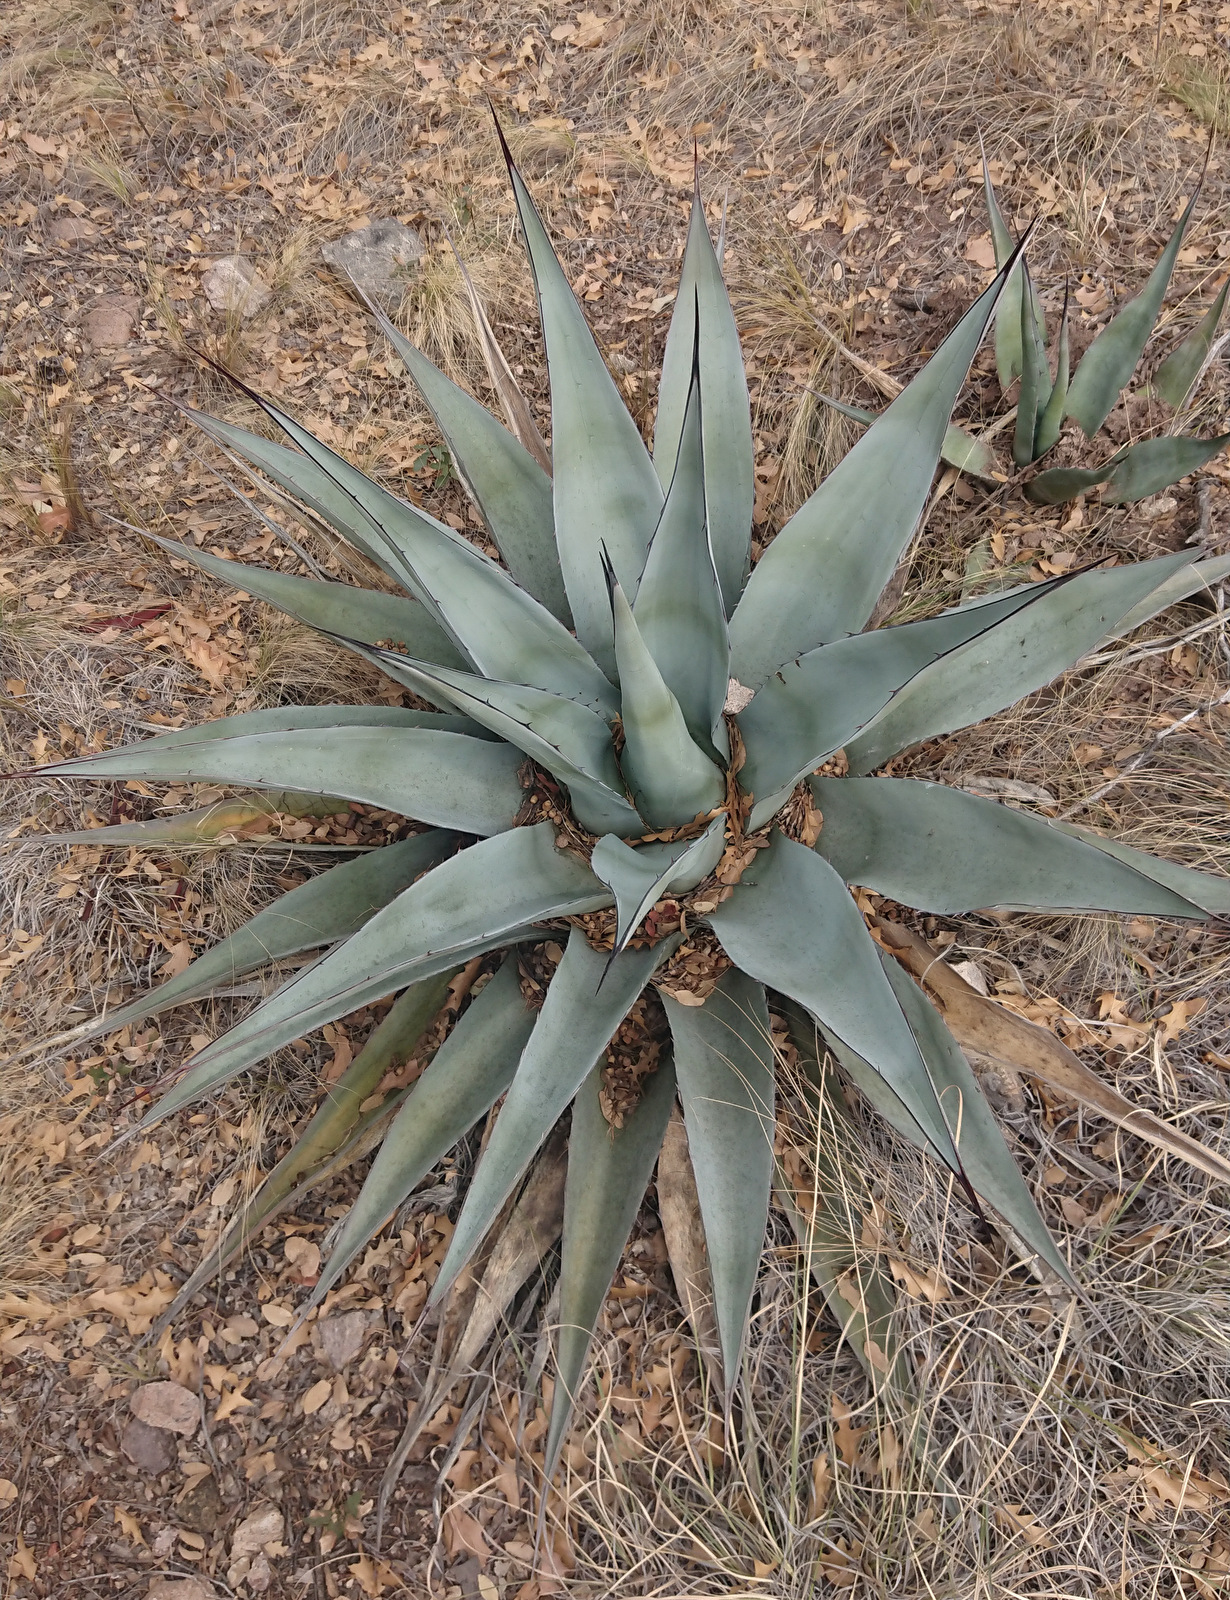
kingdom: Plantae
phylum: Tracheophyta
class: Liliopsida
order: Asparagales
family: Asparagaceae
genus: Agave
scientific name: Agave havardiana
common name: Havard agave
